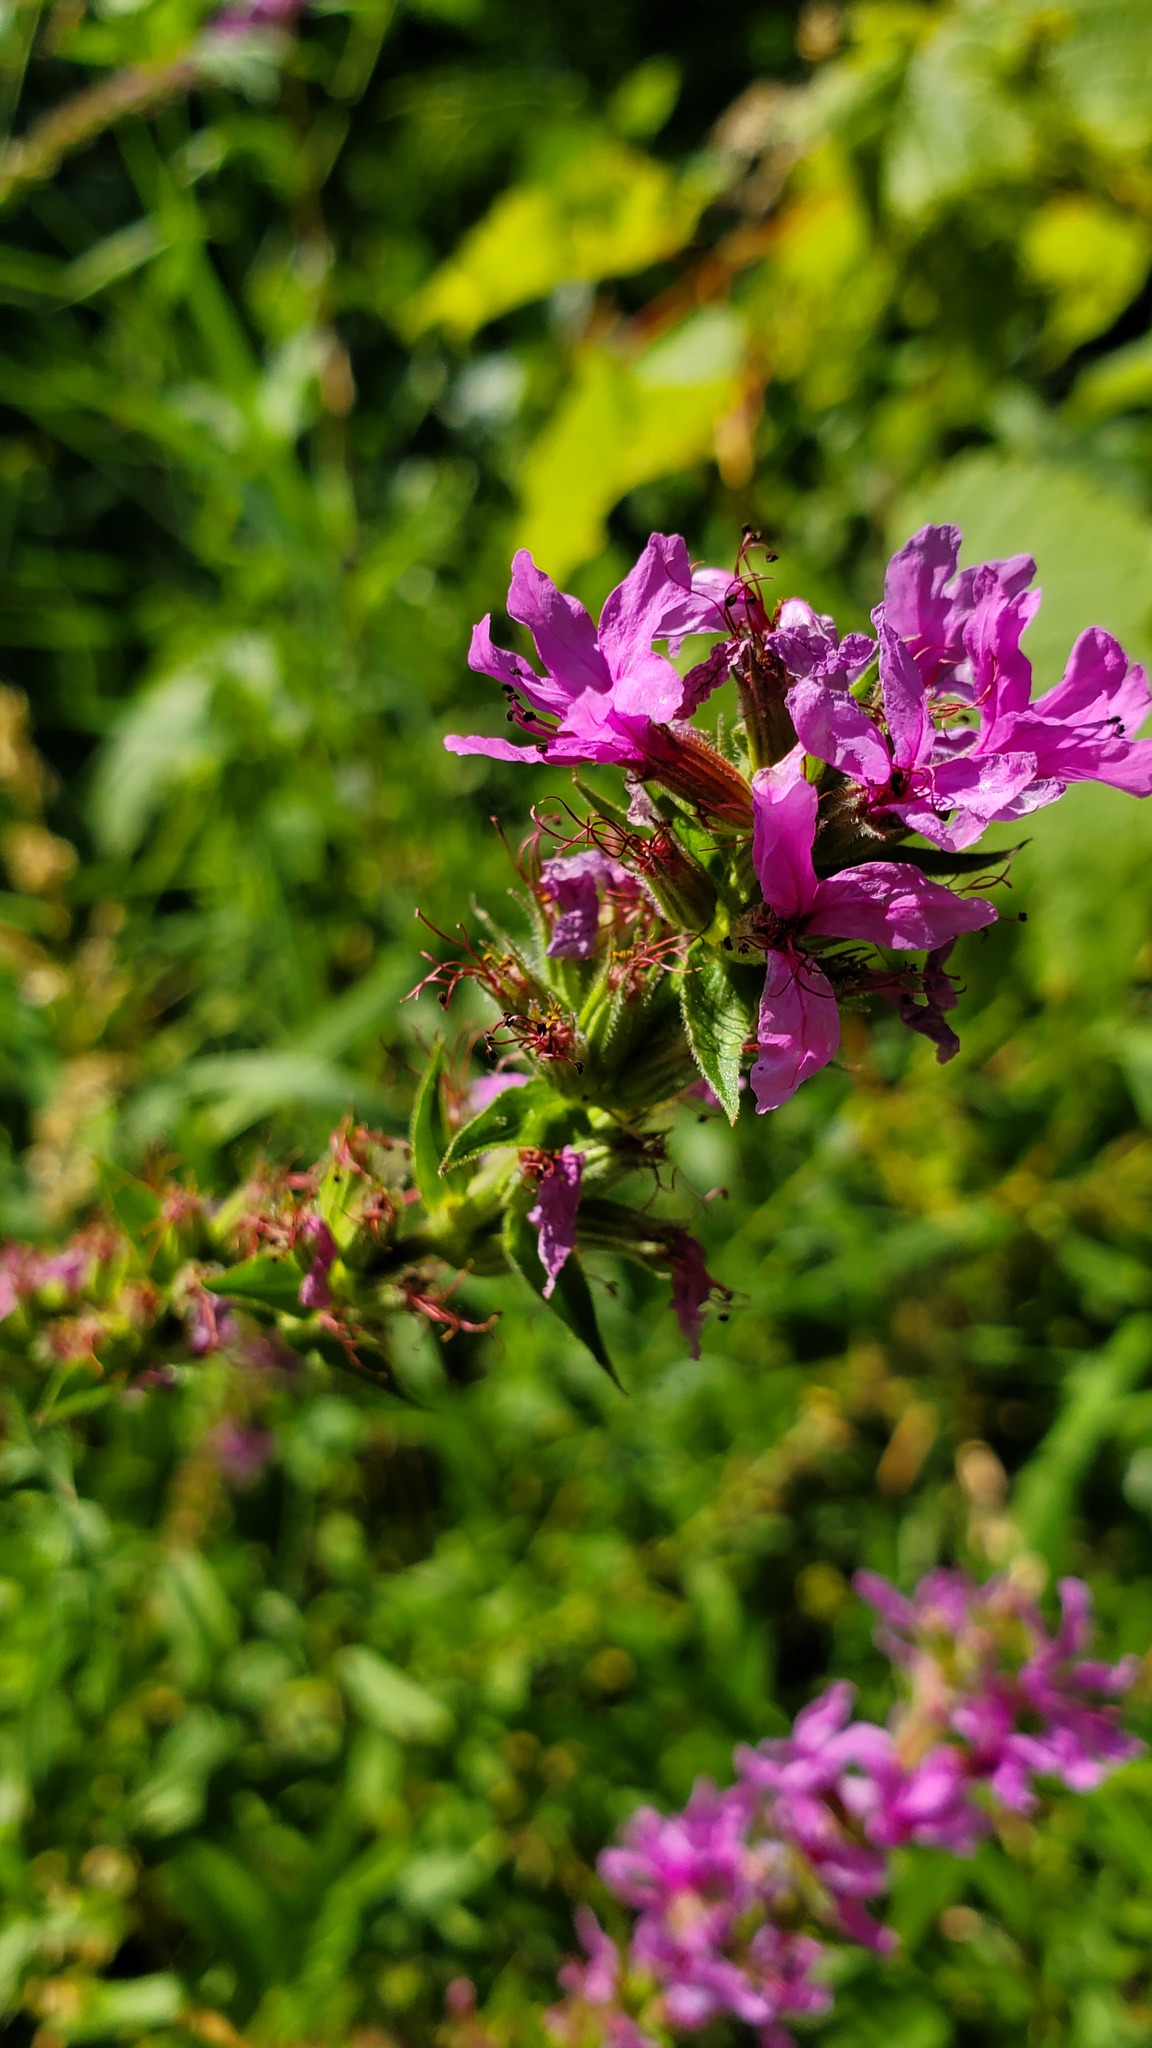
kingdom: Plantae
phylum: Tracheophyta
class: Magnoliopsida
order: Myrtales
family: Lythraceae
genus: Lythrum
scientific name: Lythrum salicaria
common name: Purple loosestrife
